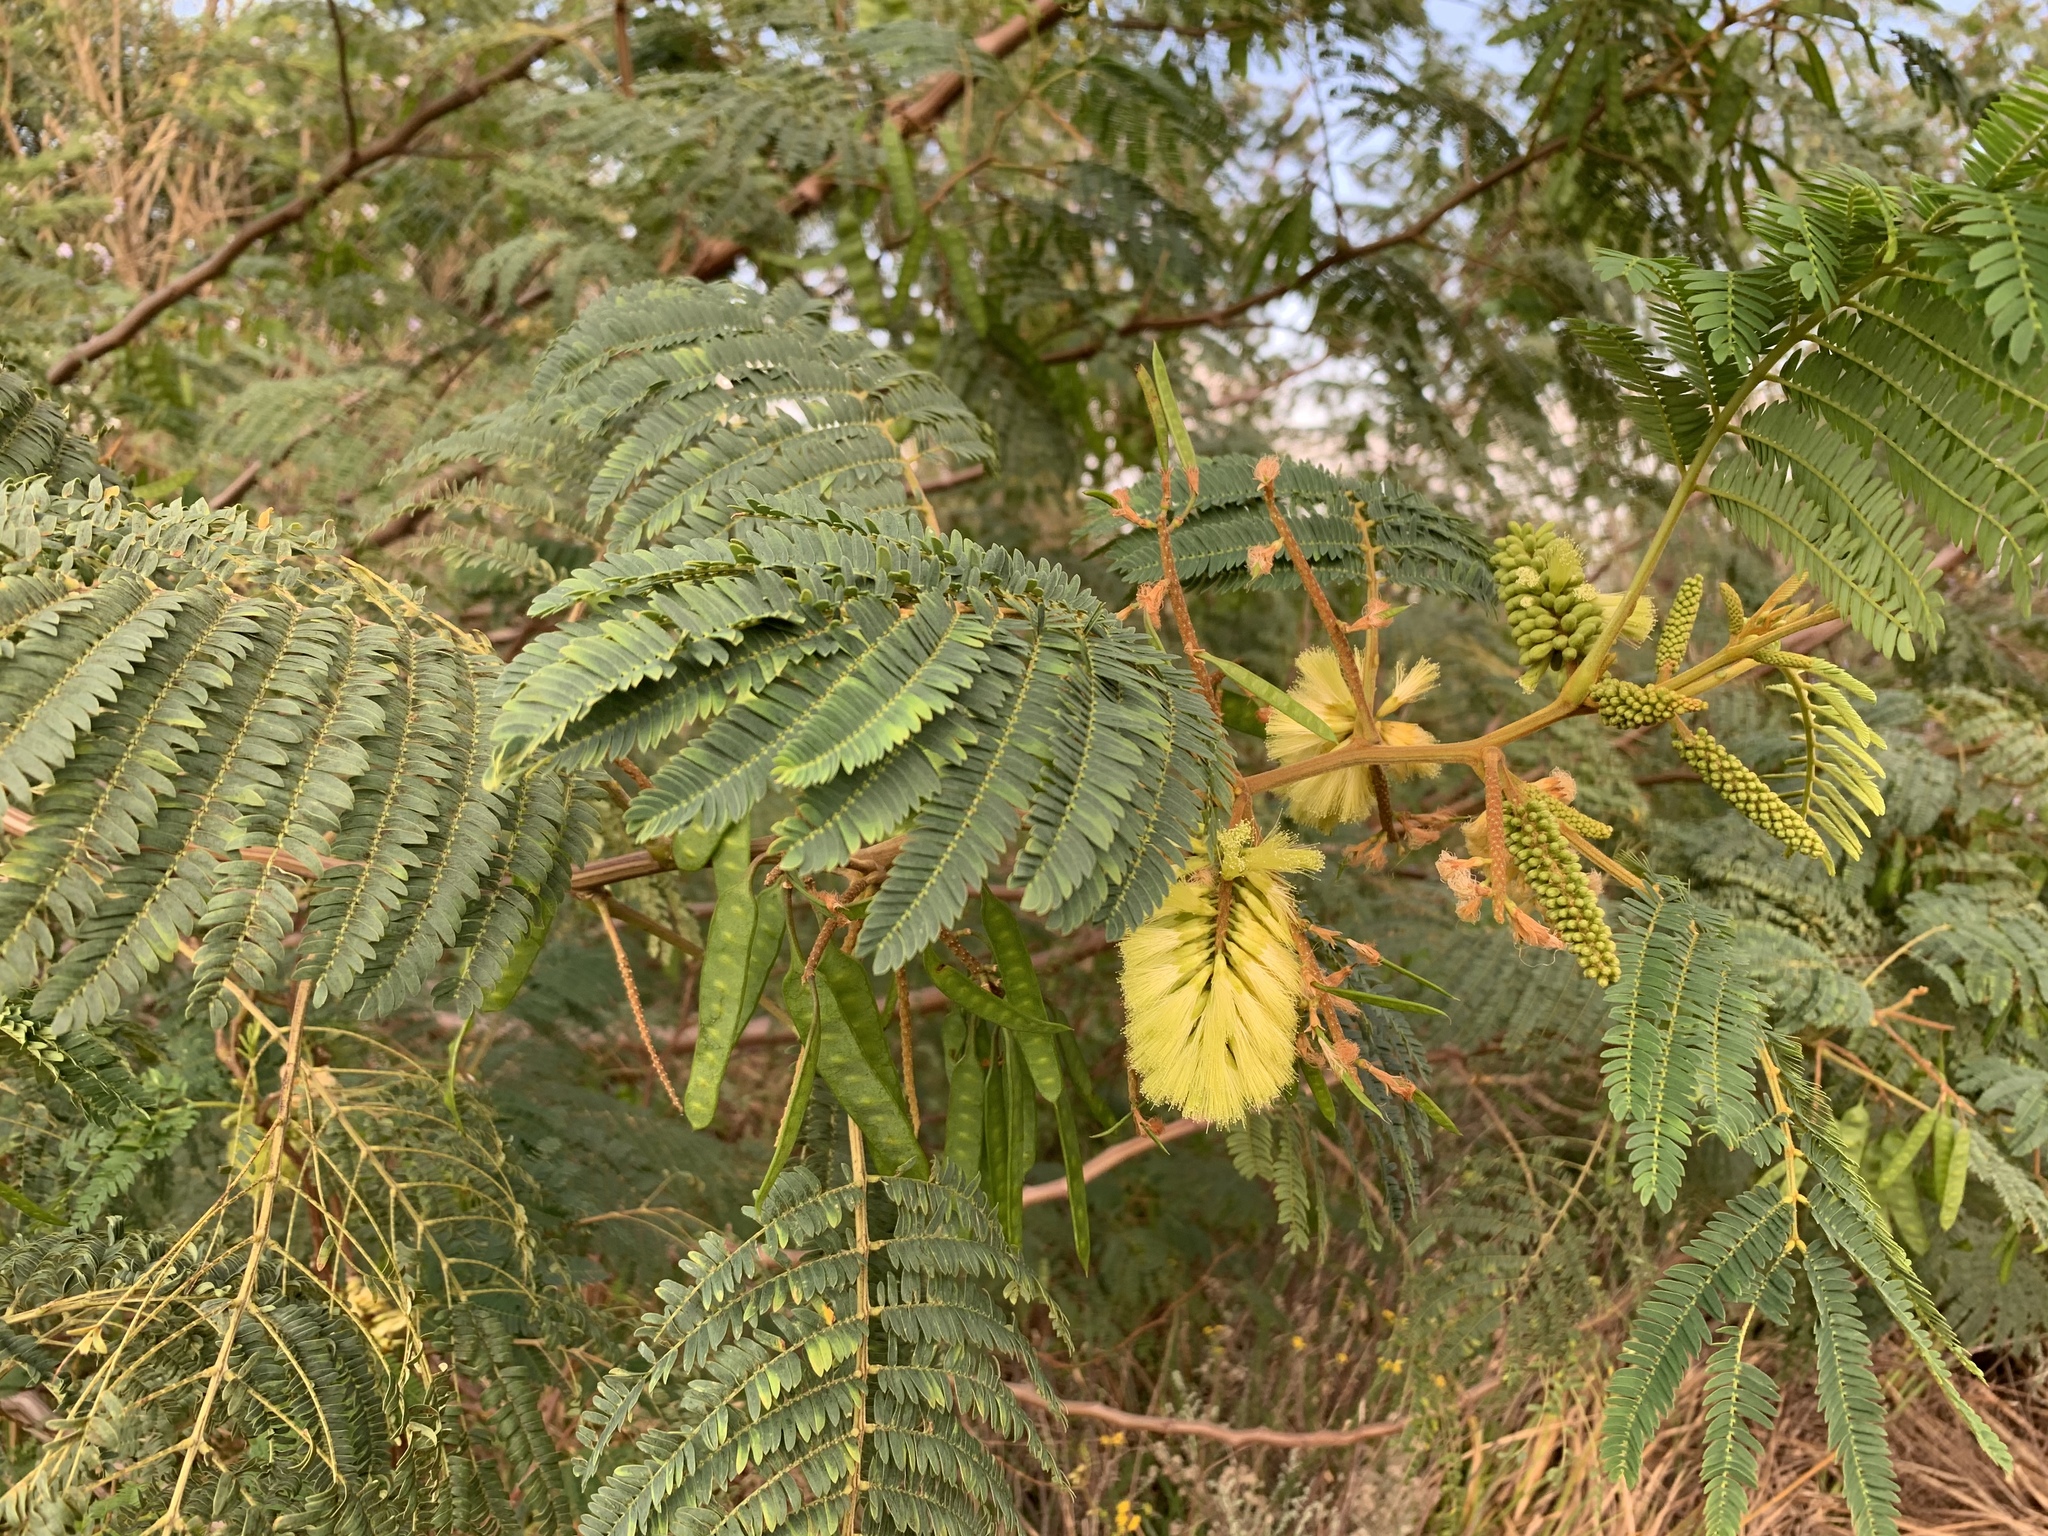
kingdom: Plantae
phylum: Tracheophyta
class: Magnoliopsida
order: Fabales
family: Fabaceae
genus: Paraserianthes
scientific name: Paraserianthes lophantha
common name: Plume albizia
